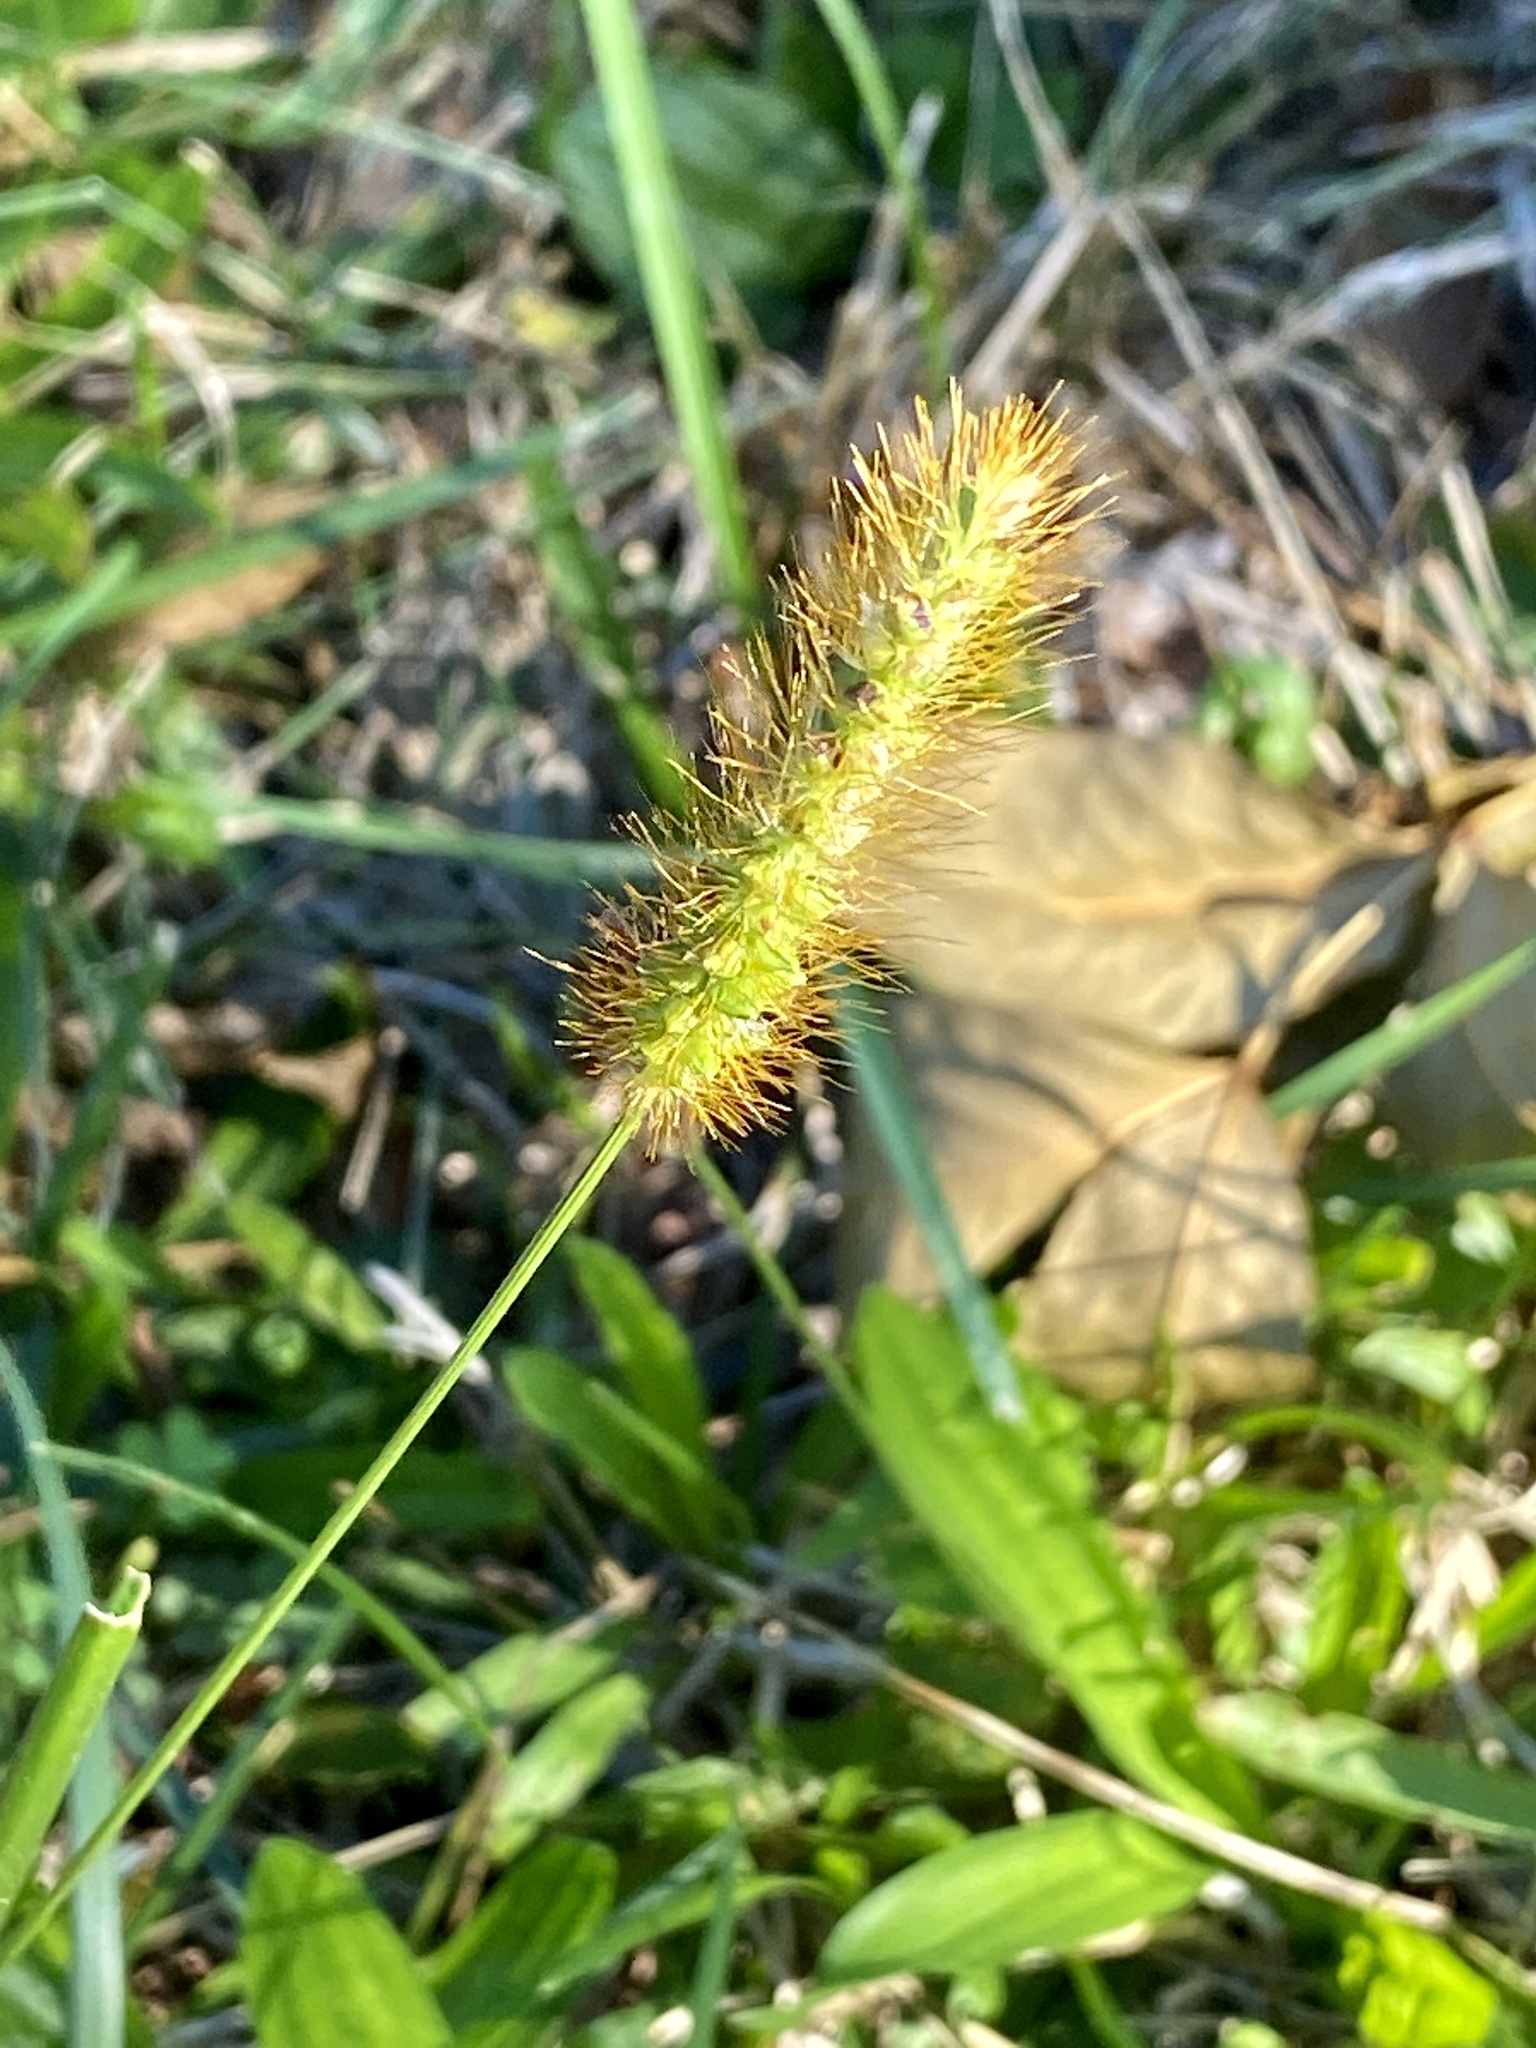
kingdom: Plantae
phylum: Tracheophyta
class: Liliopsida
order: Poales
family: Poaceae
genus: Setaria
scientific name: Setaria pumila
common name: Yellow bristle-grass
